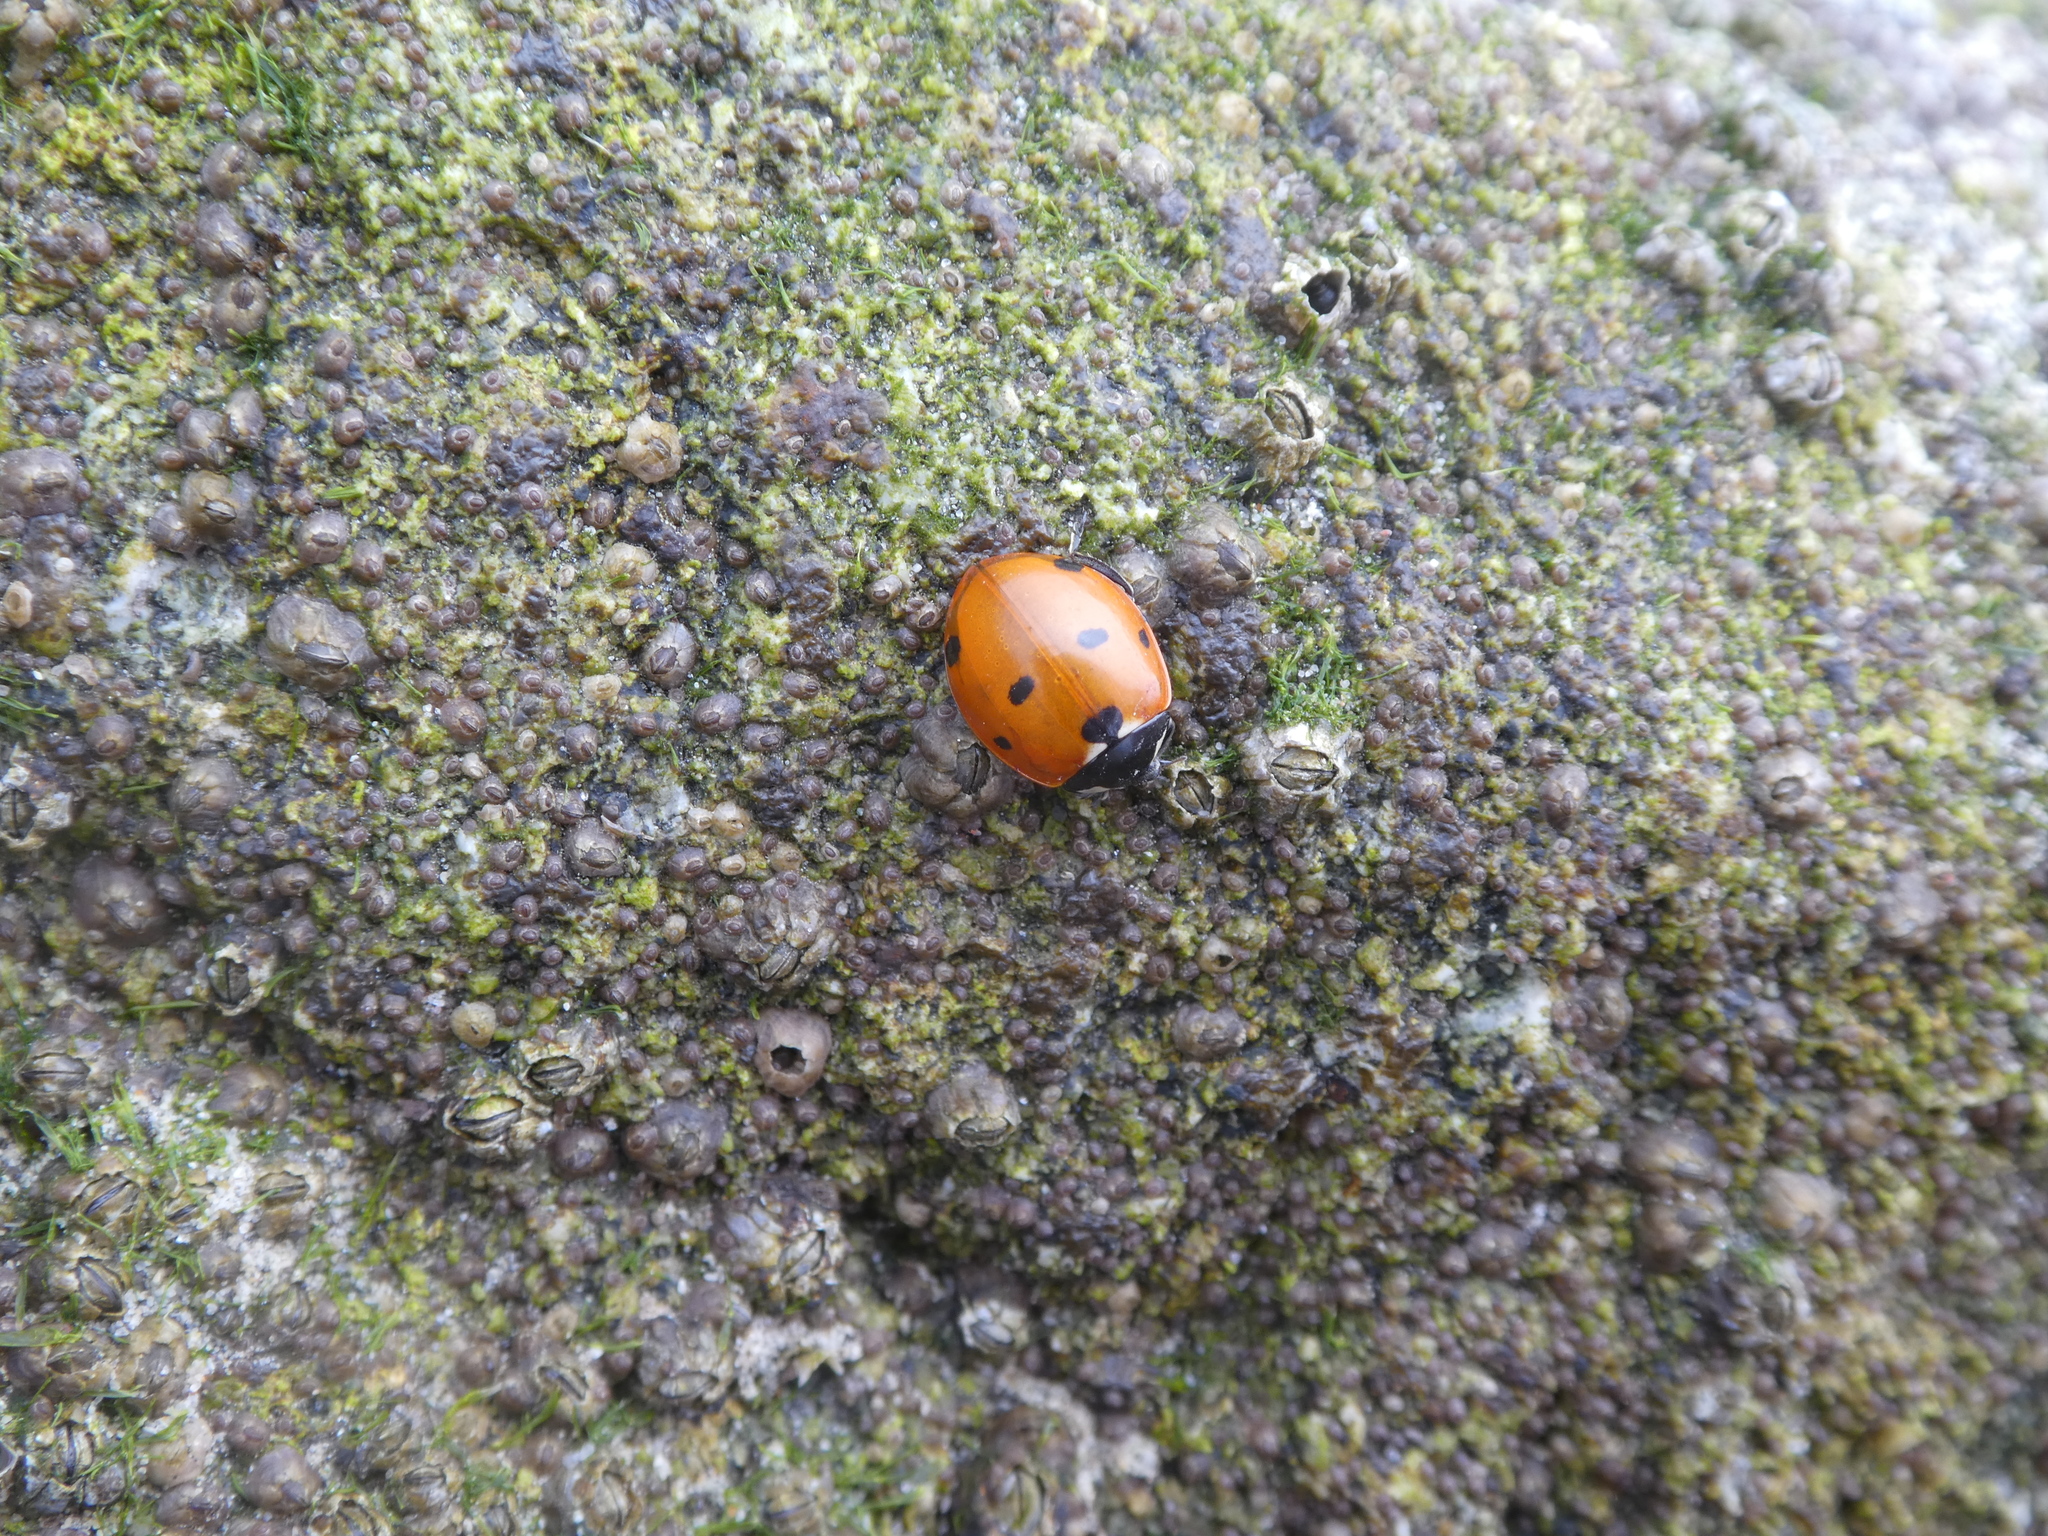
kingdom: Animalia
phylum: Arthropoda
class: Insecta
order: Coleoptera
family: Coccinellidae
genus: Coccinella
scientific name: Coccinella septempunctata
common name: Sevenspotted lady beetle
